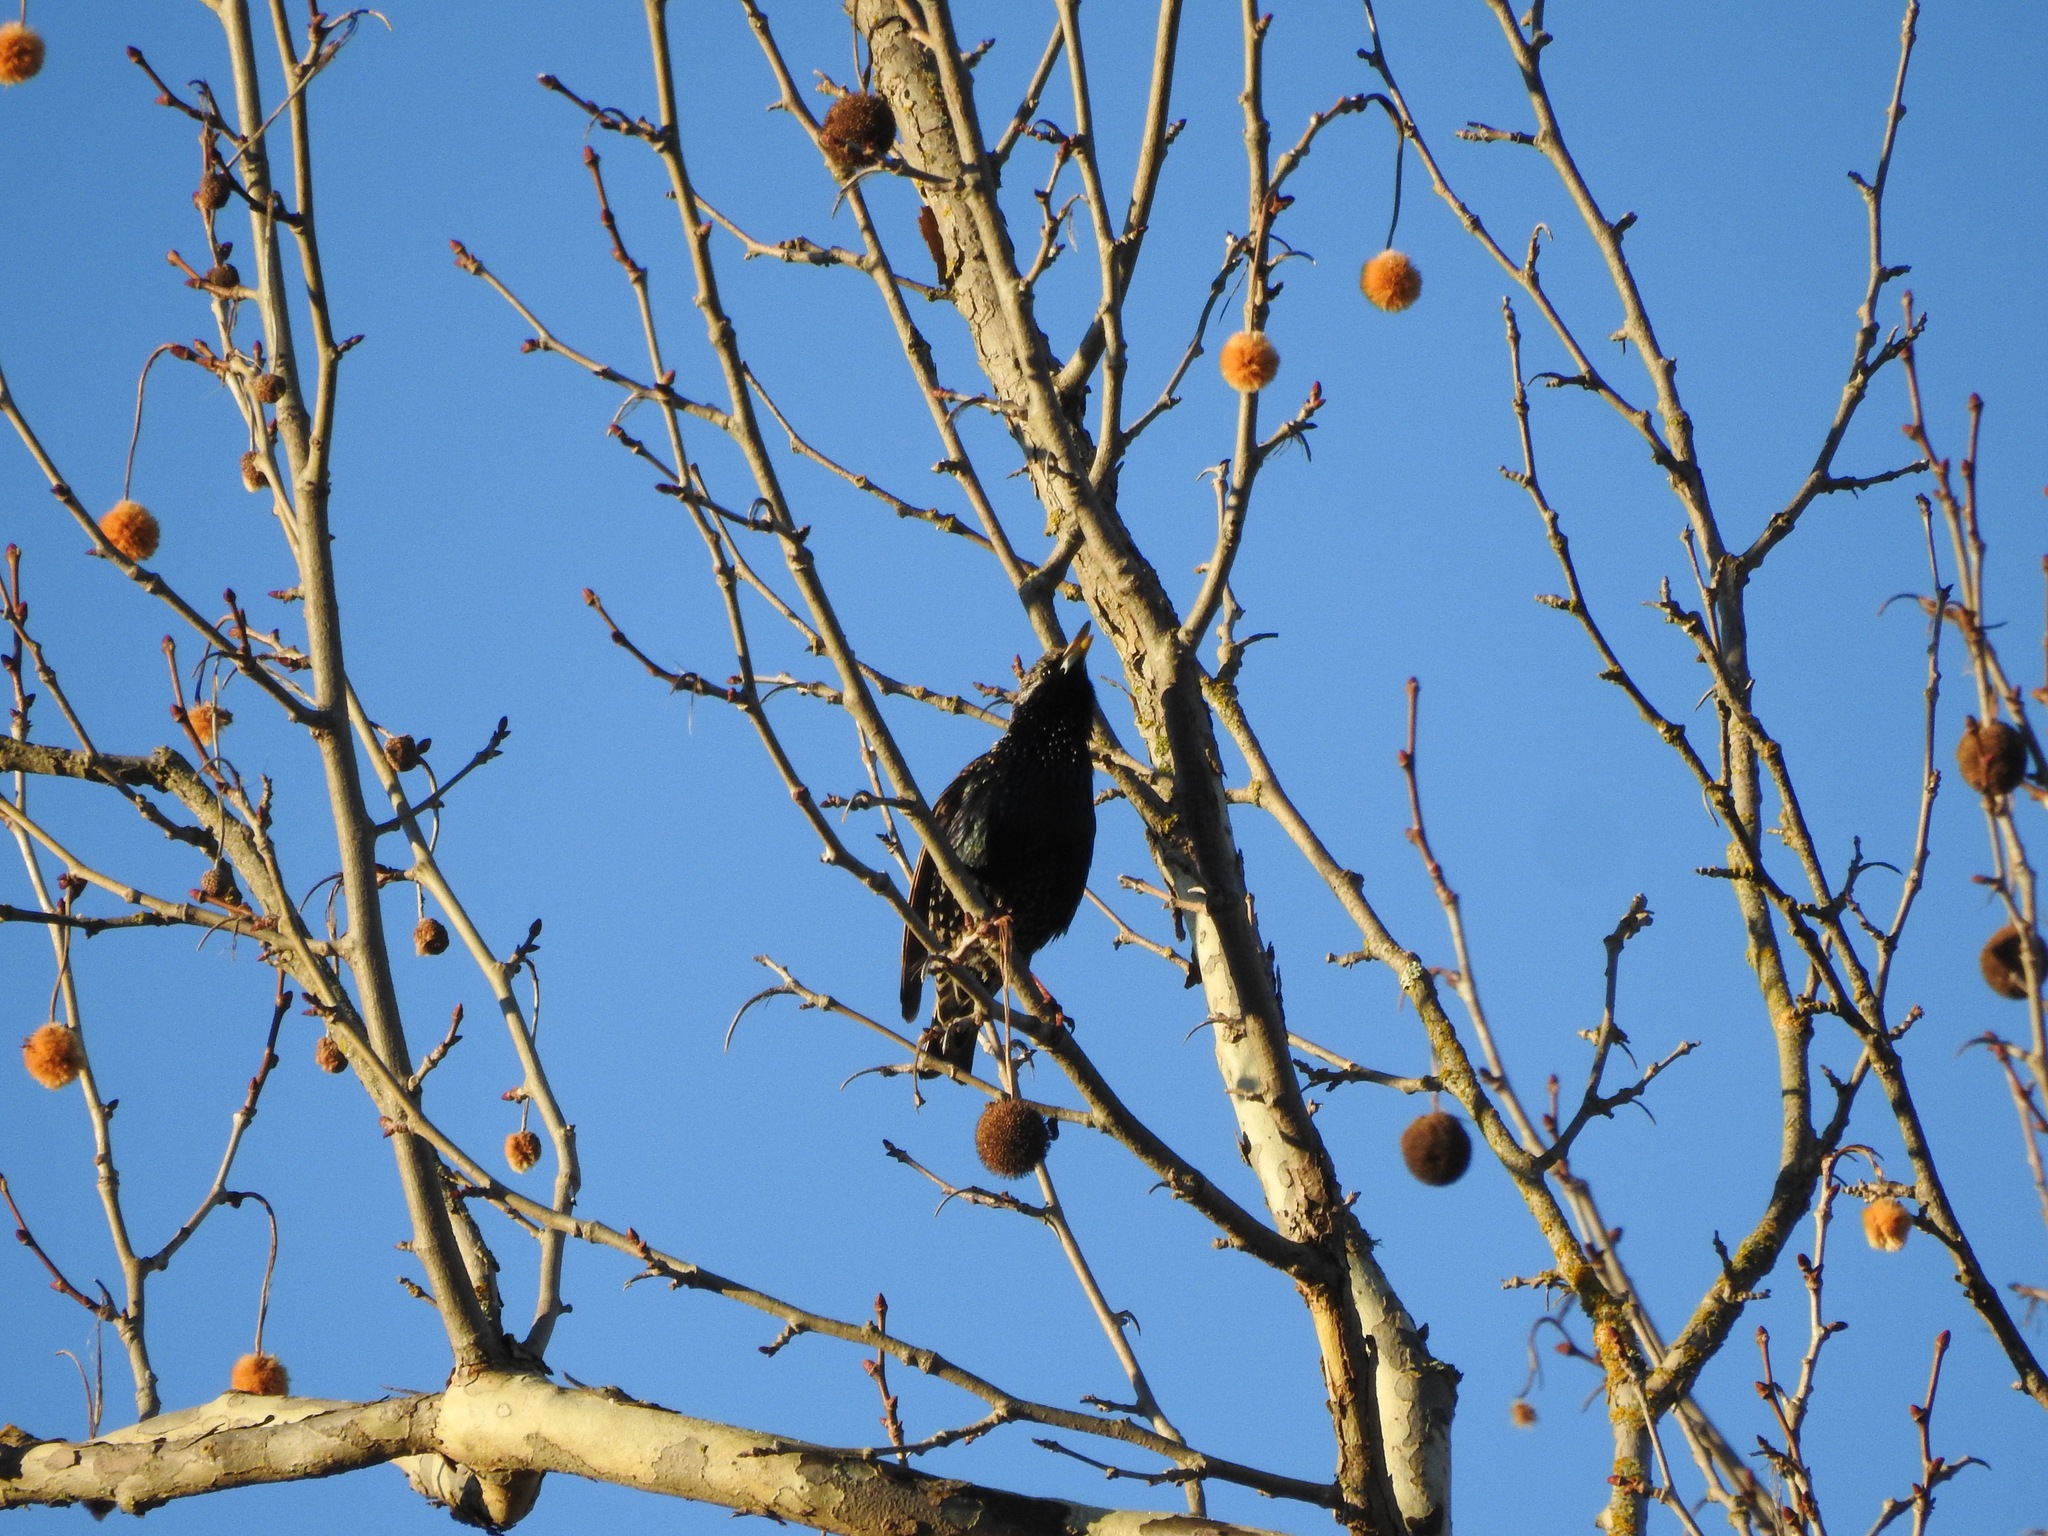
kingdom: Animalia
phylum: Chordata
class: Aves
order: Passeriformes
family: Sturnidae
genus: Sturnus
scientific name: Sturnus vulgaris
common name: Common starling
